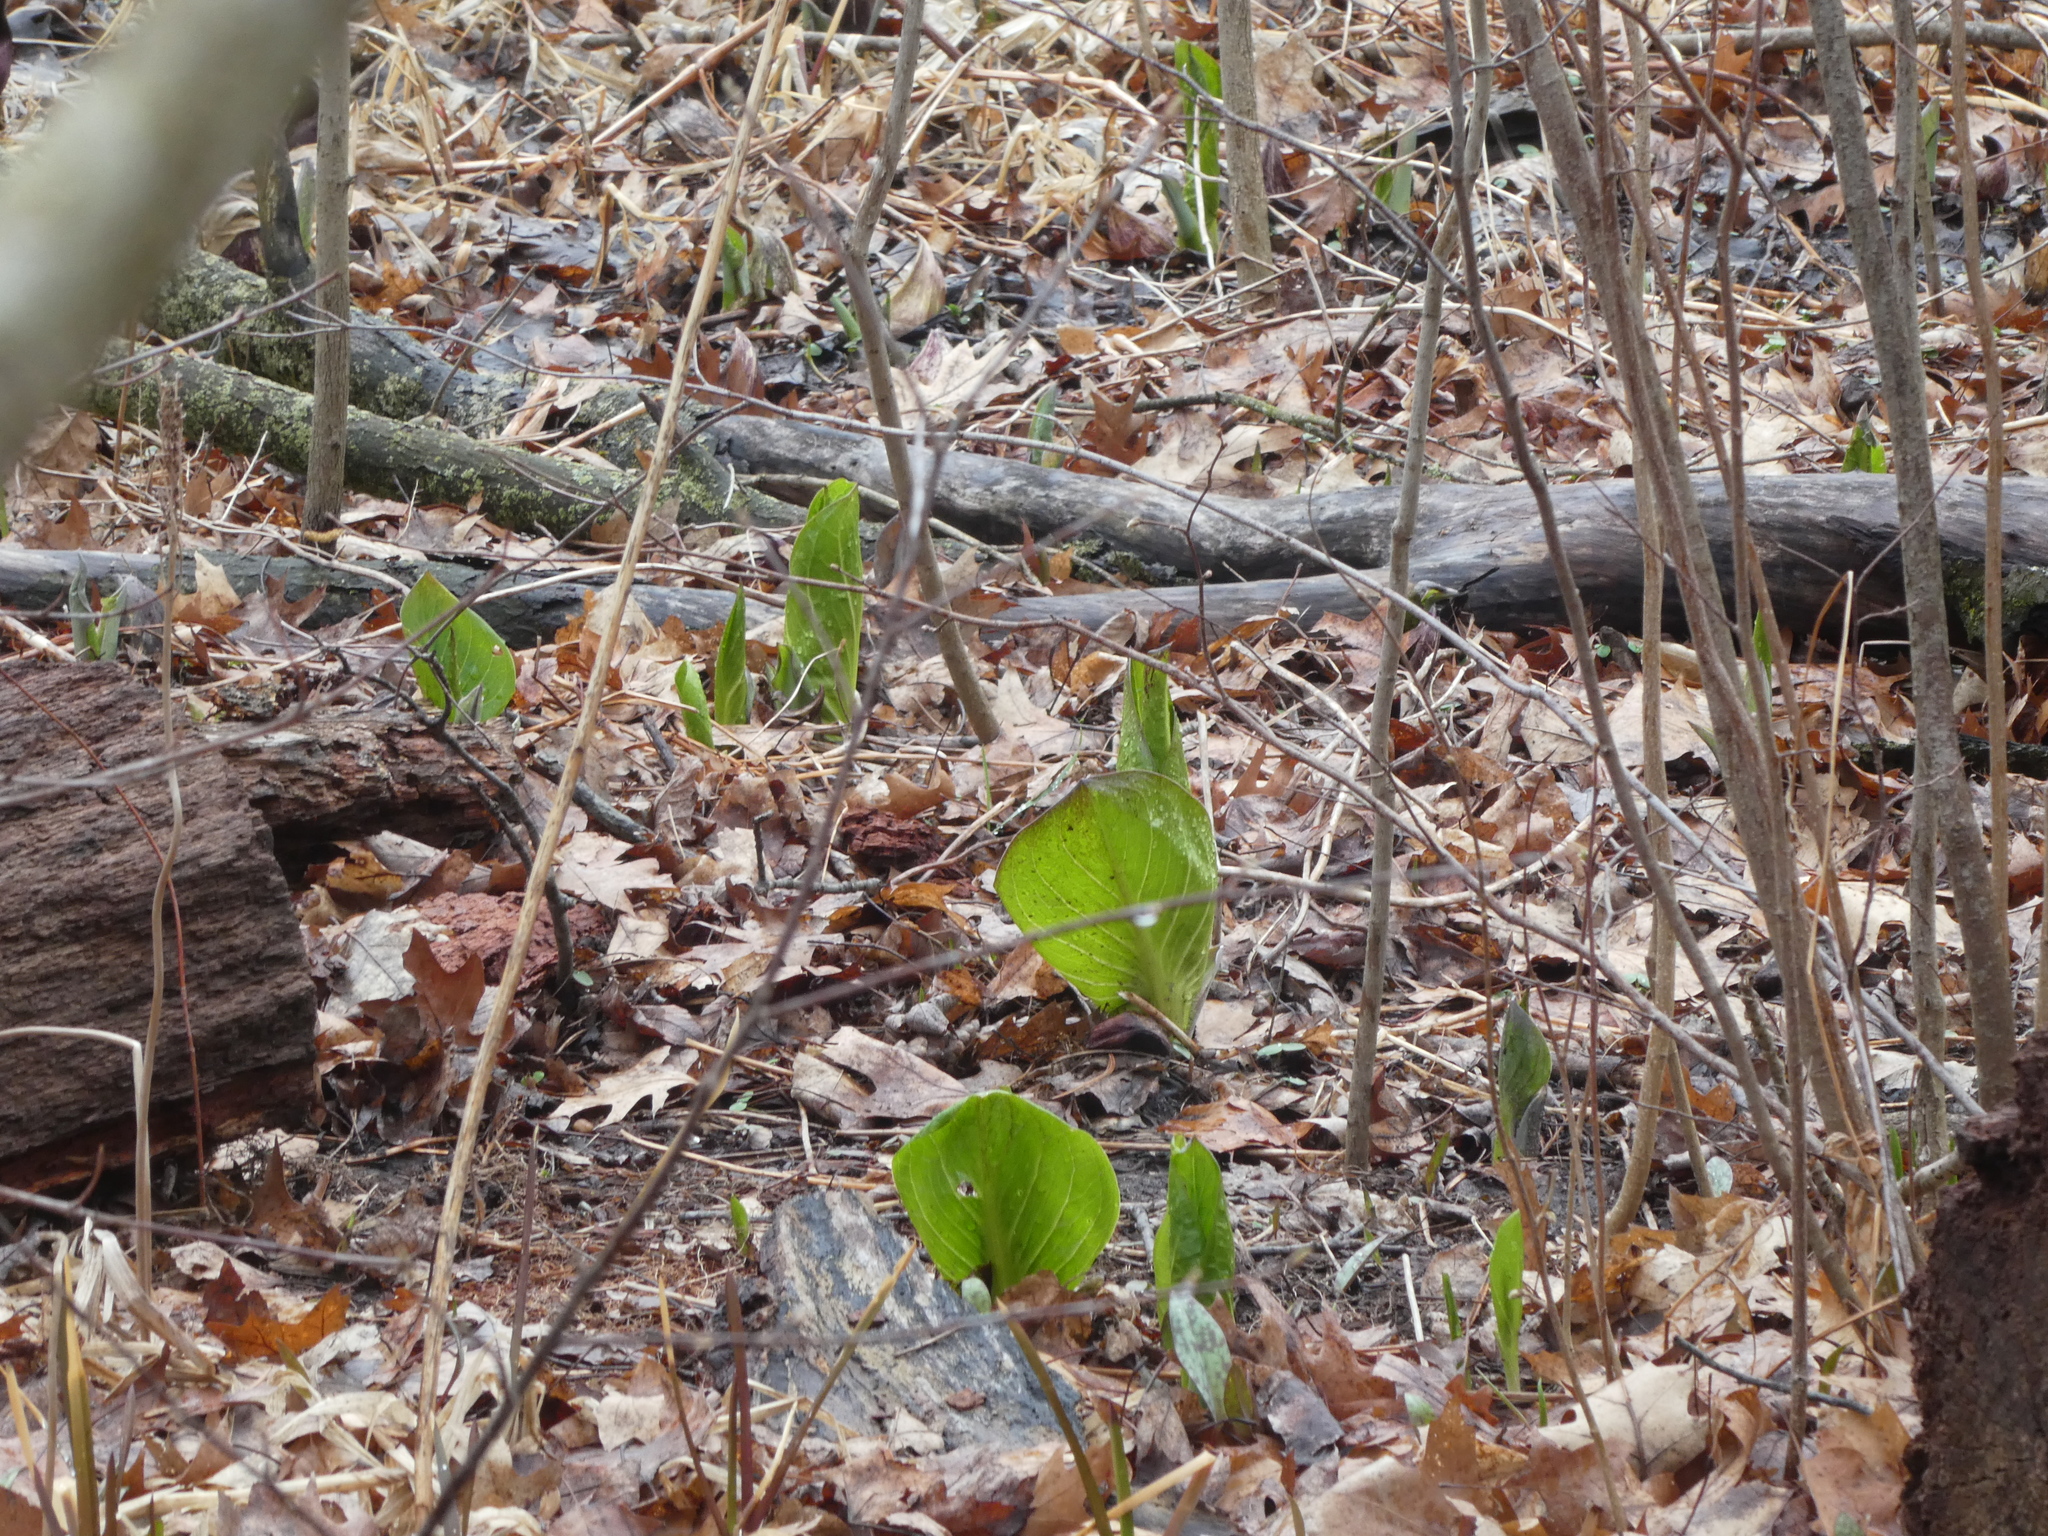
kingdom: Plantae
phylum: Tracheophyta
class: Liliopsida
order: Alismatales
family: Araceae
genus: Symplocarpus
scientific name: Symplocarpus foetidus
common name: Eastern skunk cabbage
